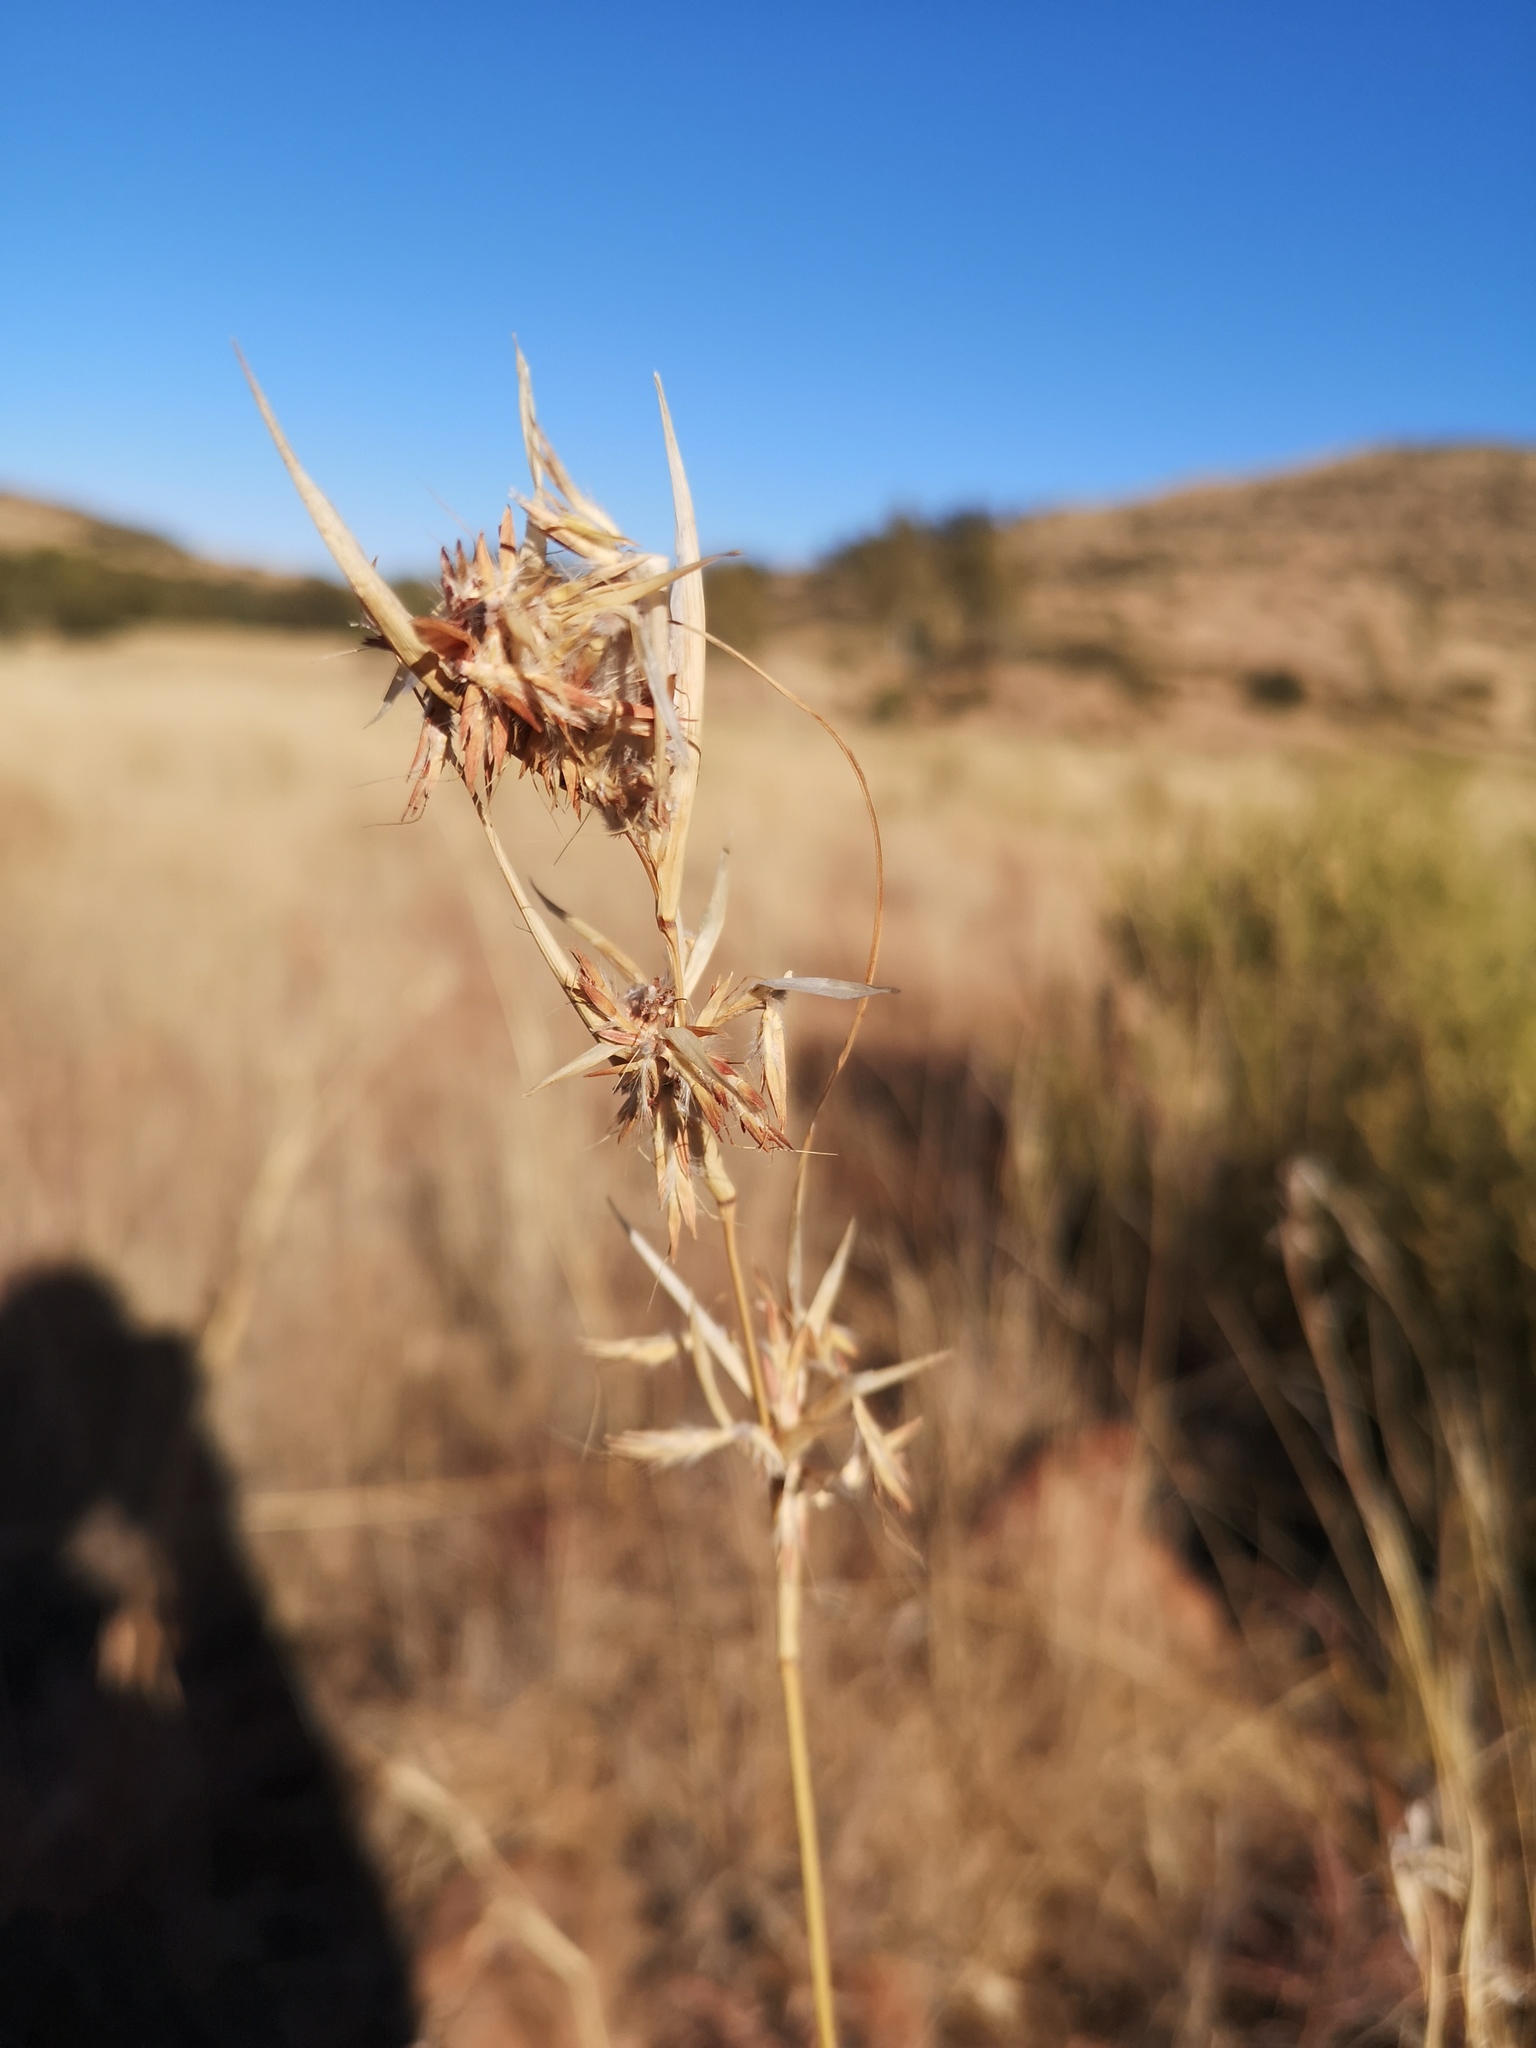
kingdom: Plantae
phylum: Tracheophyta
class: Liliopsida
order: Poales
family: Poaceae
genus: Cymbopogon
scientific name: Cymbopogon pospischilii
